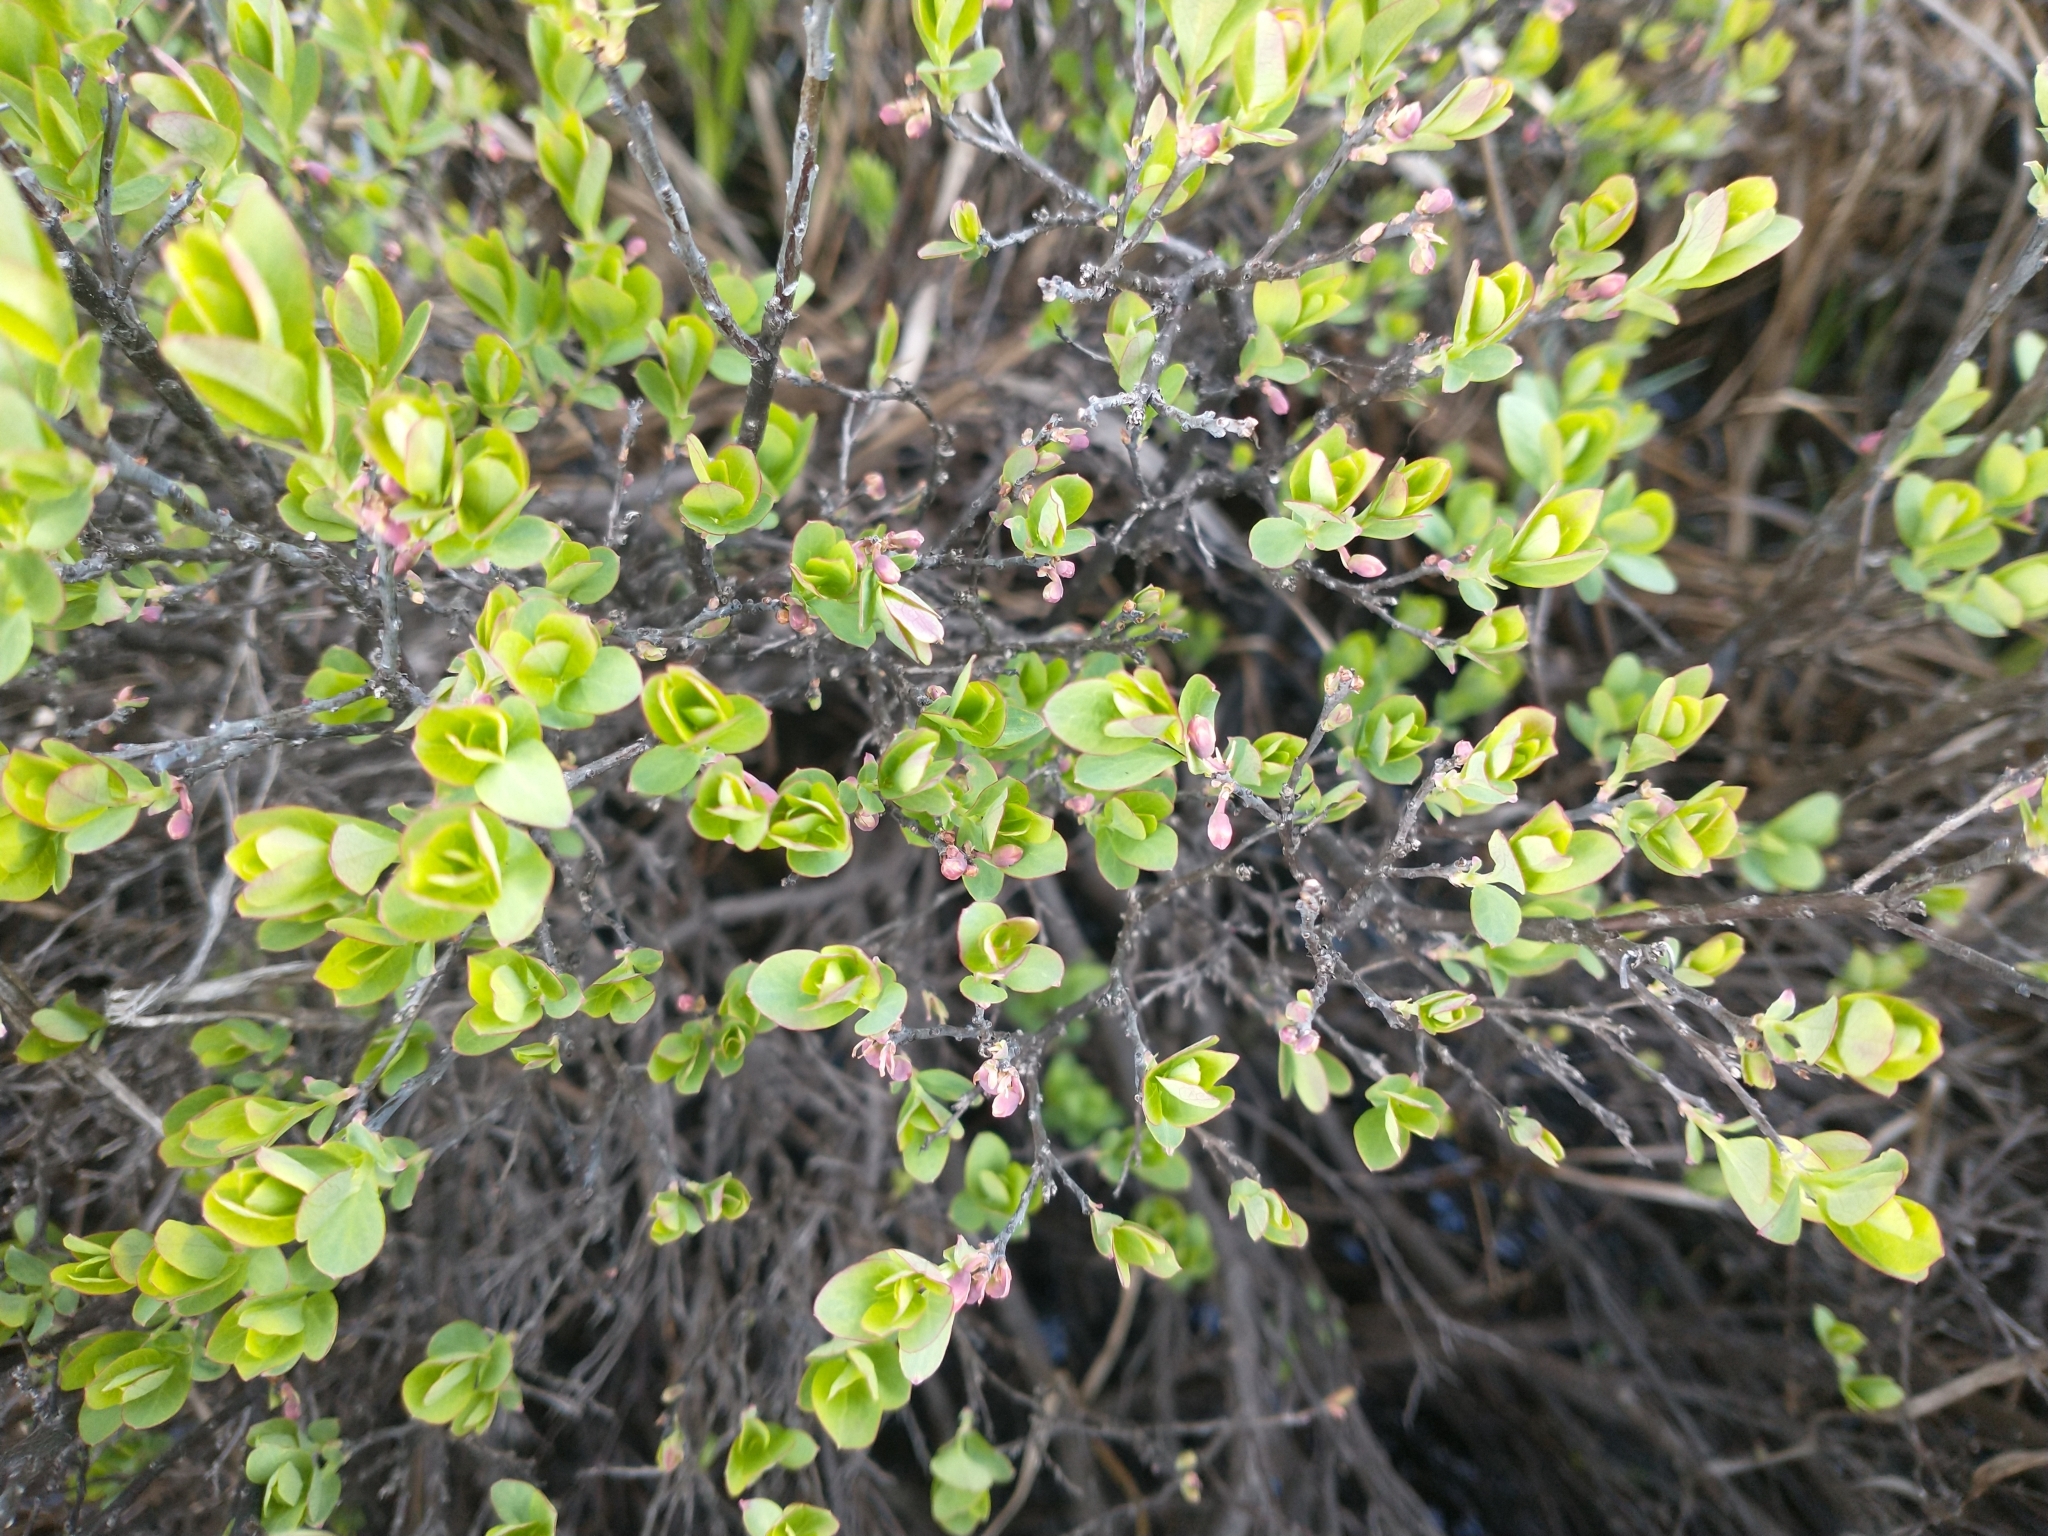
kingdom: Plantae
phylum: Tracheophyta
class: Magnoliopsida
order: Ericales
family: Ericaceae
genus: Vaccinium
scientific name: Vaccinium uliginosum
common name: Bog bilberry
